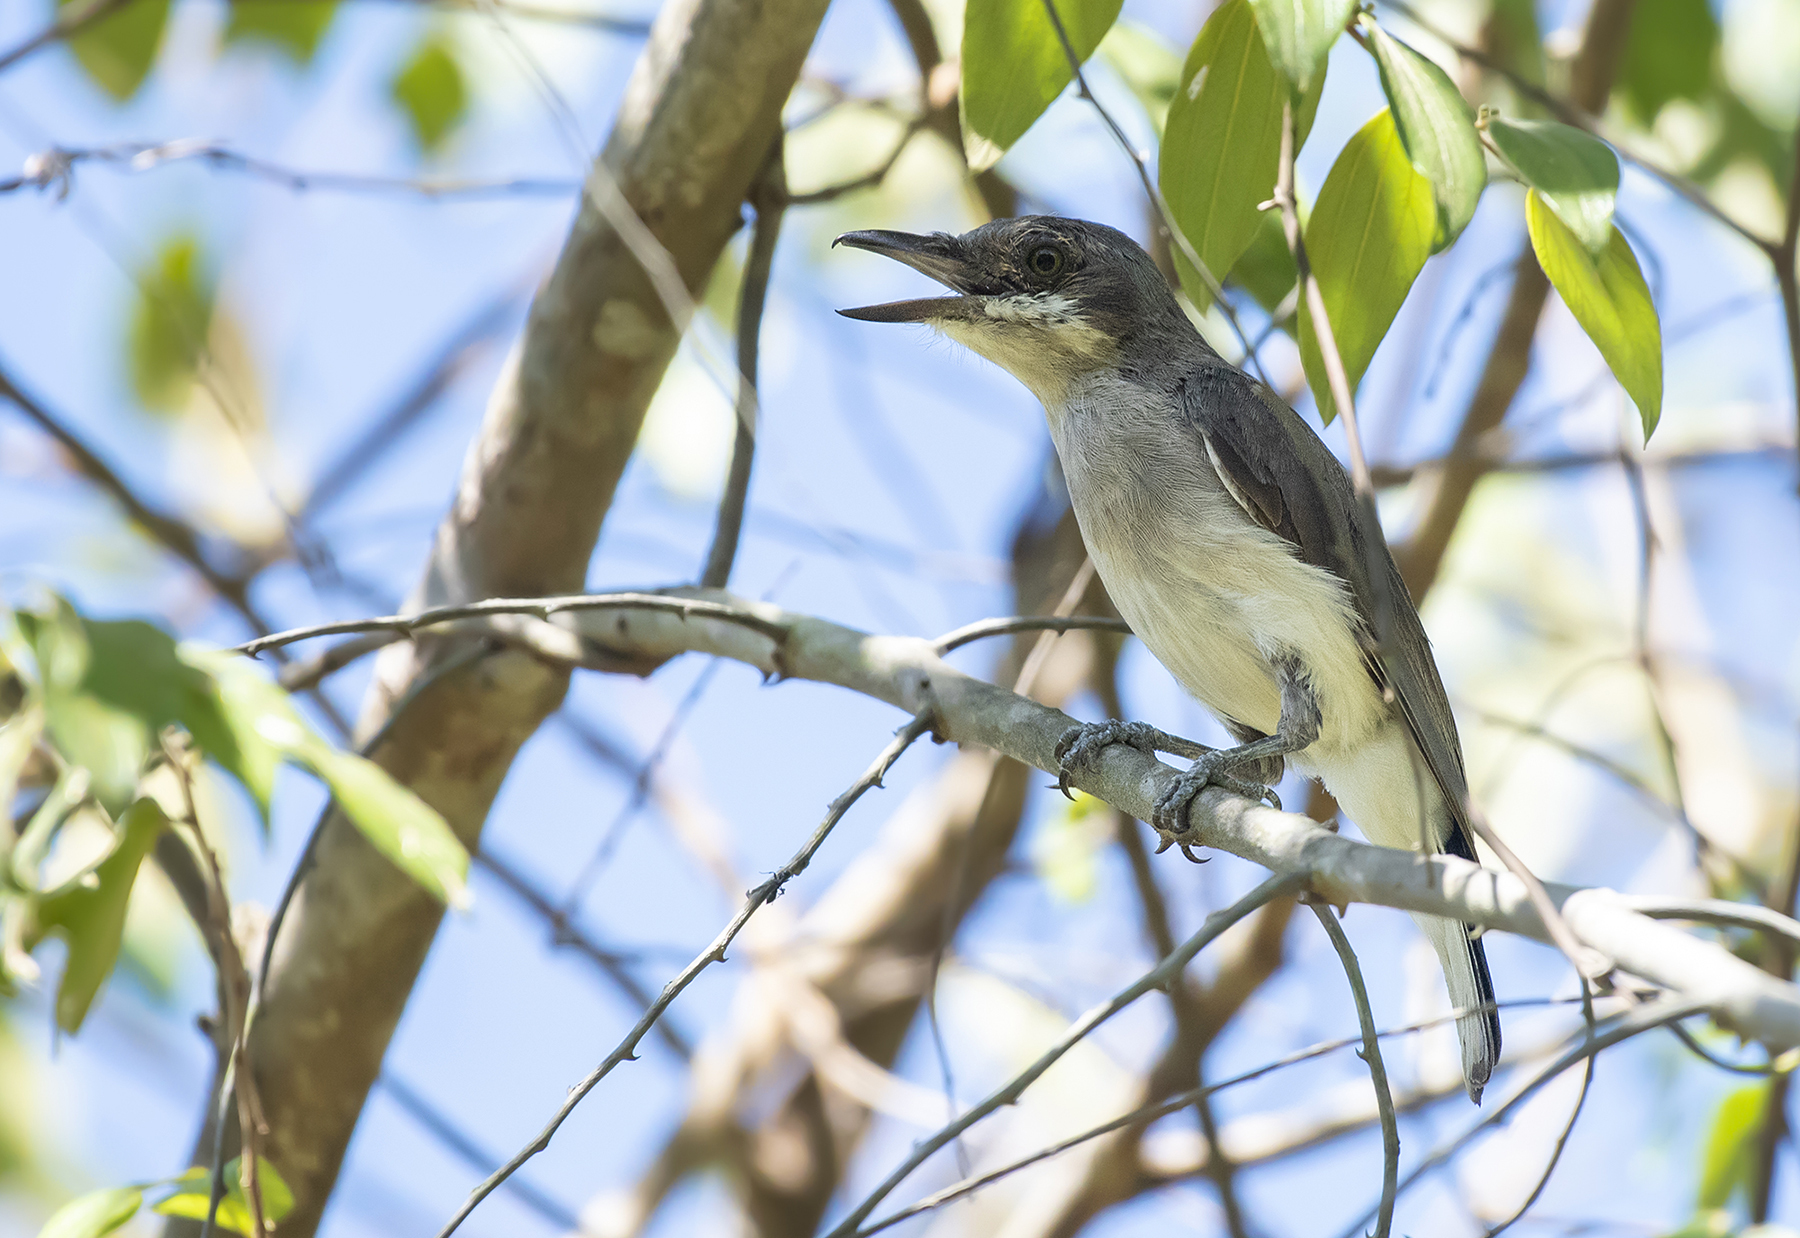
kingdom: Animalia
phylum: Chordata
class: Aves
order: Passeriformes
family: Tephrodornithidae
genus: Tephrodornis
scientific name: Tephrodornis affinis
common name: Sri lanka woodshrike
